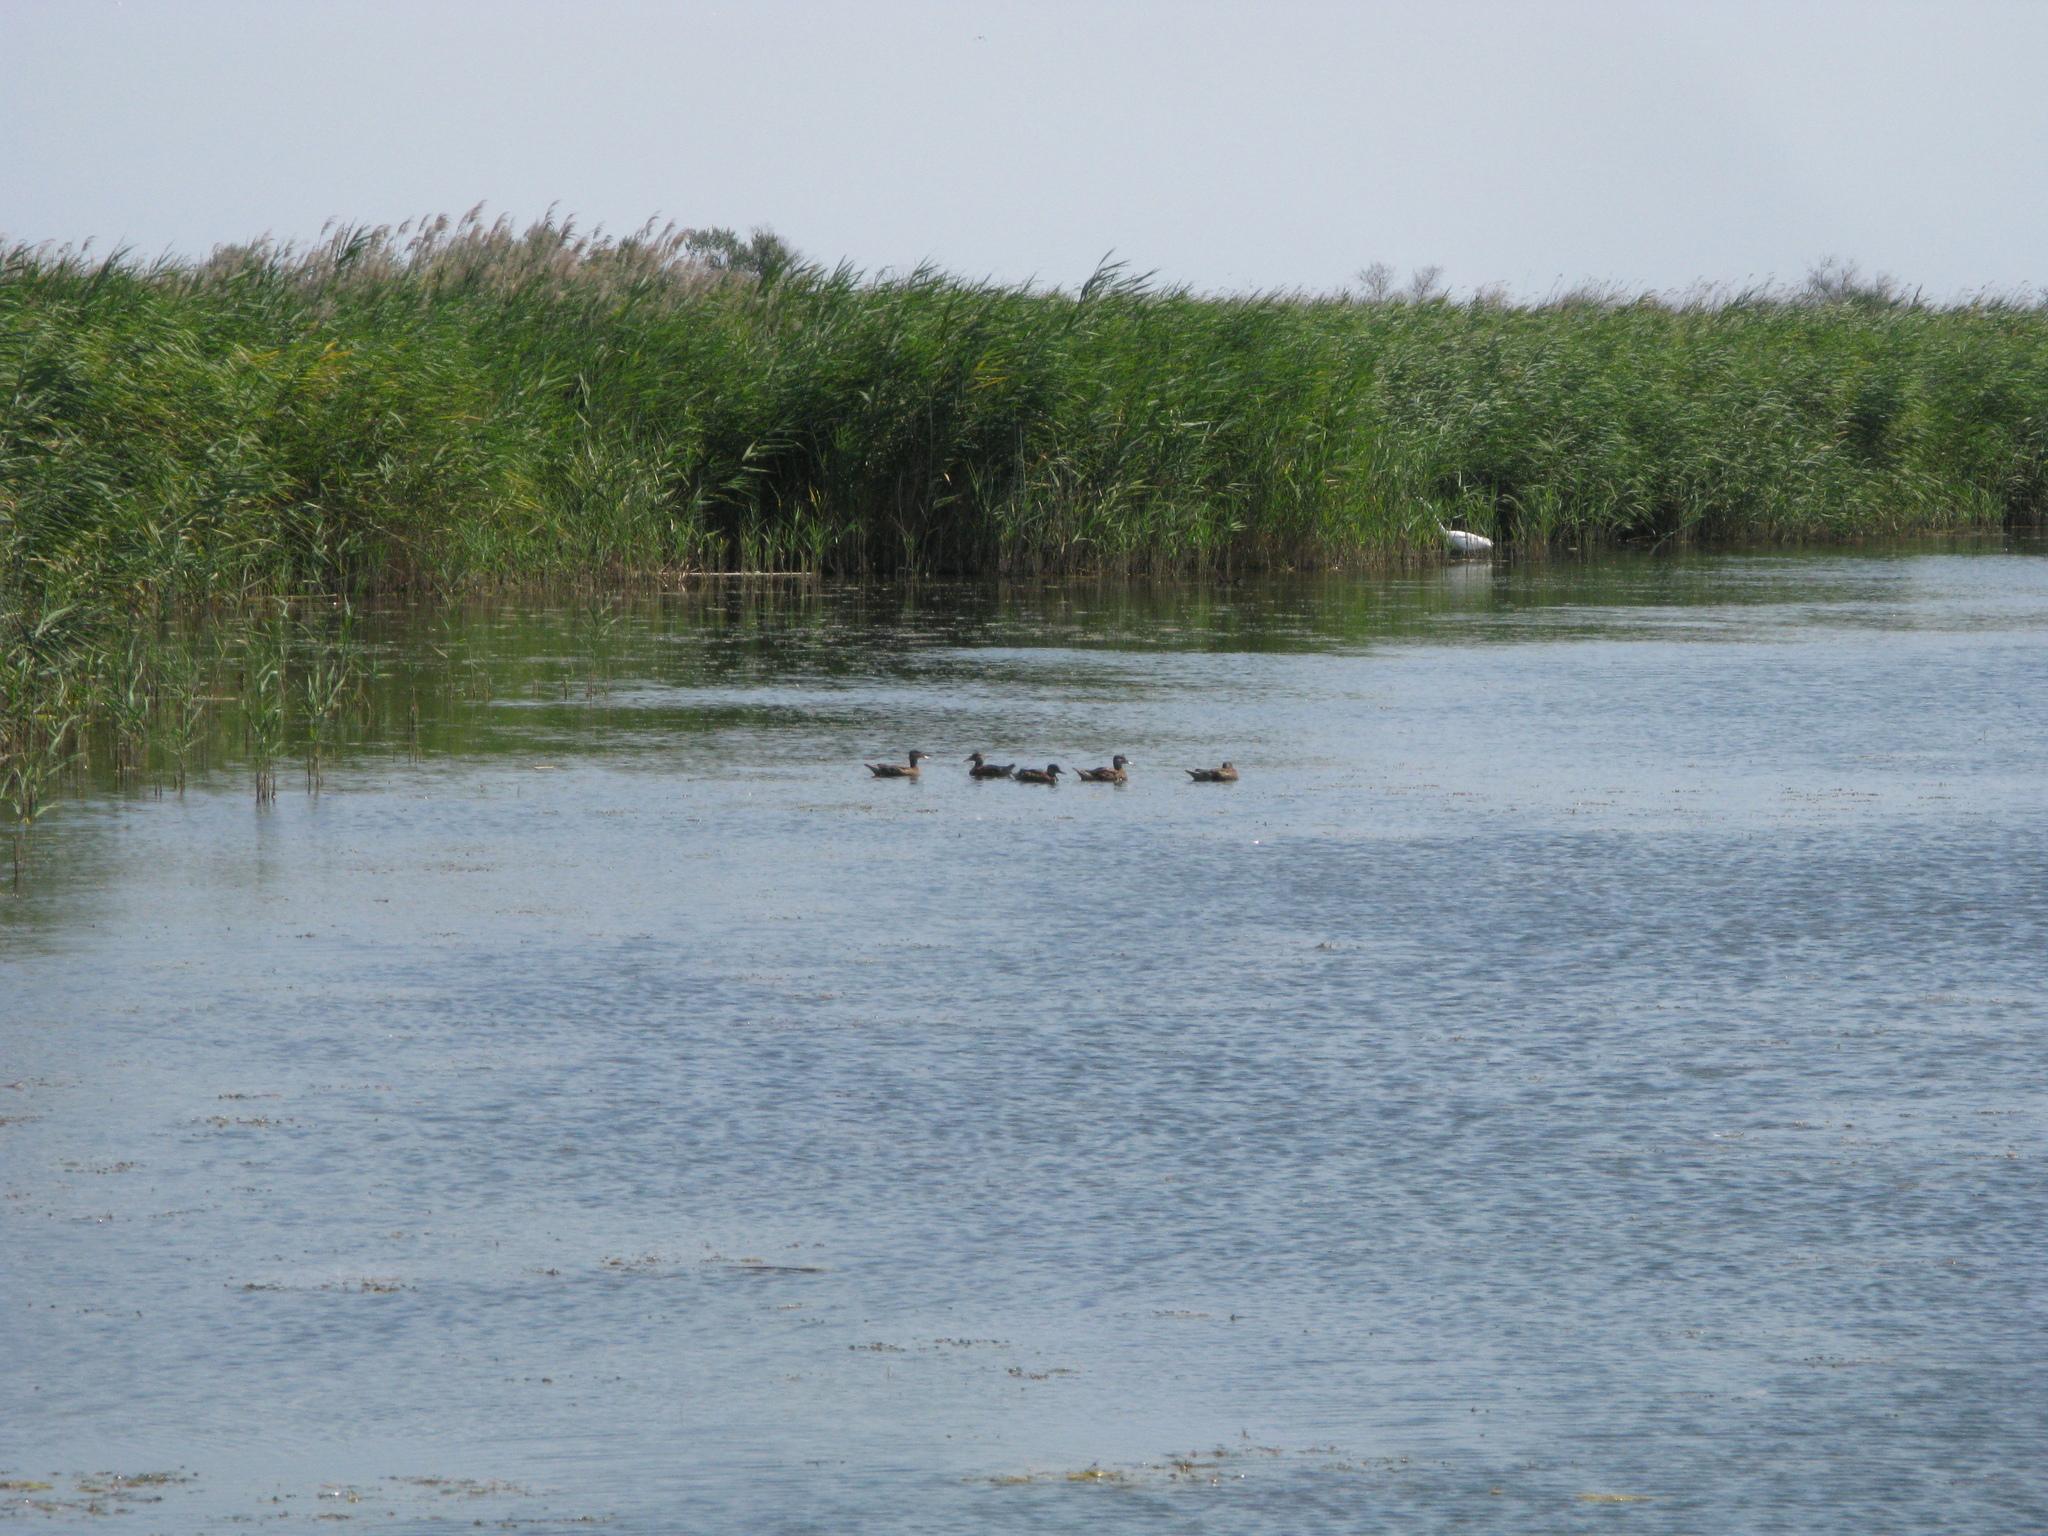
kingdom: Animalia
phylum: Chordata
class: Aves
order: Anseriformes
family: Anatidae
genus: Anas
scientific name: Anas platyrhynchos
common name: Mallard
